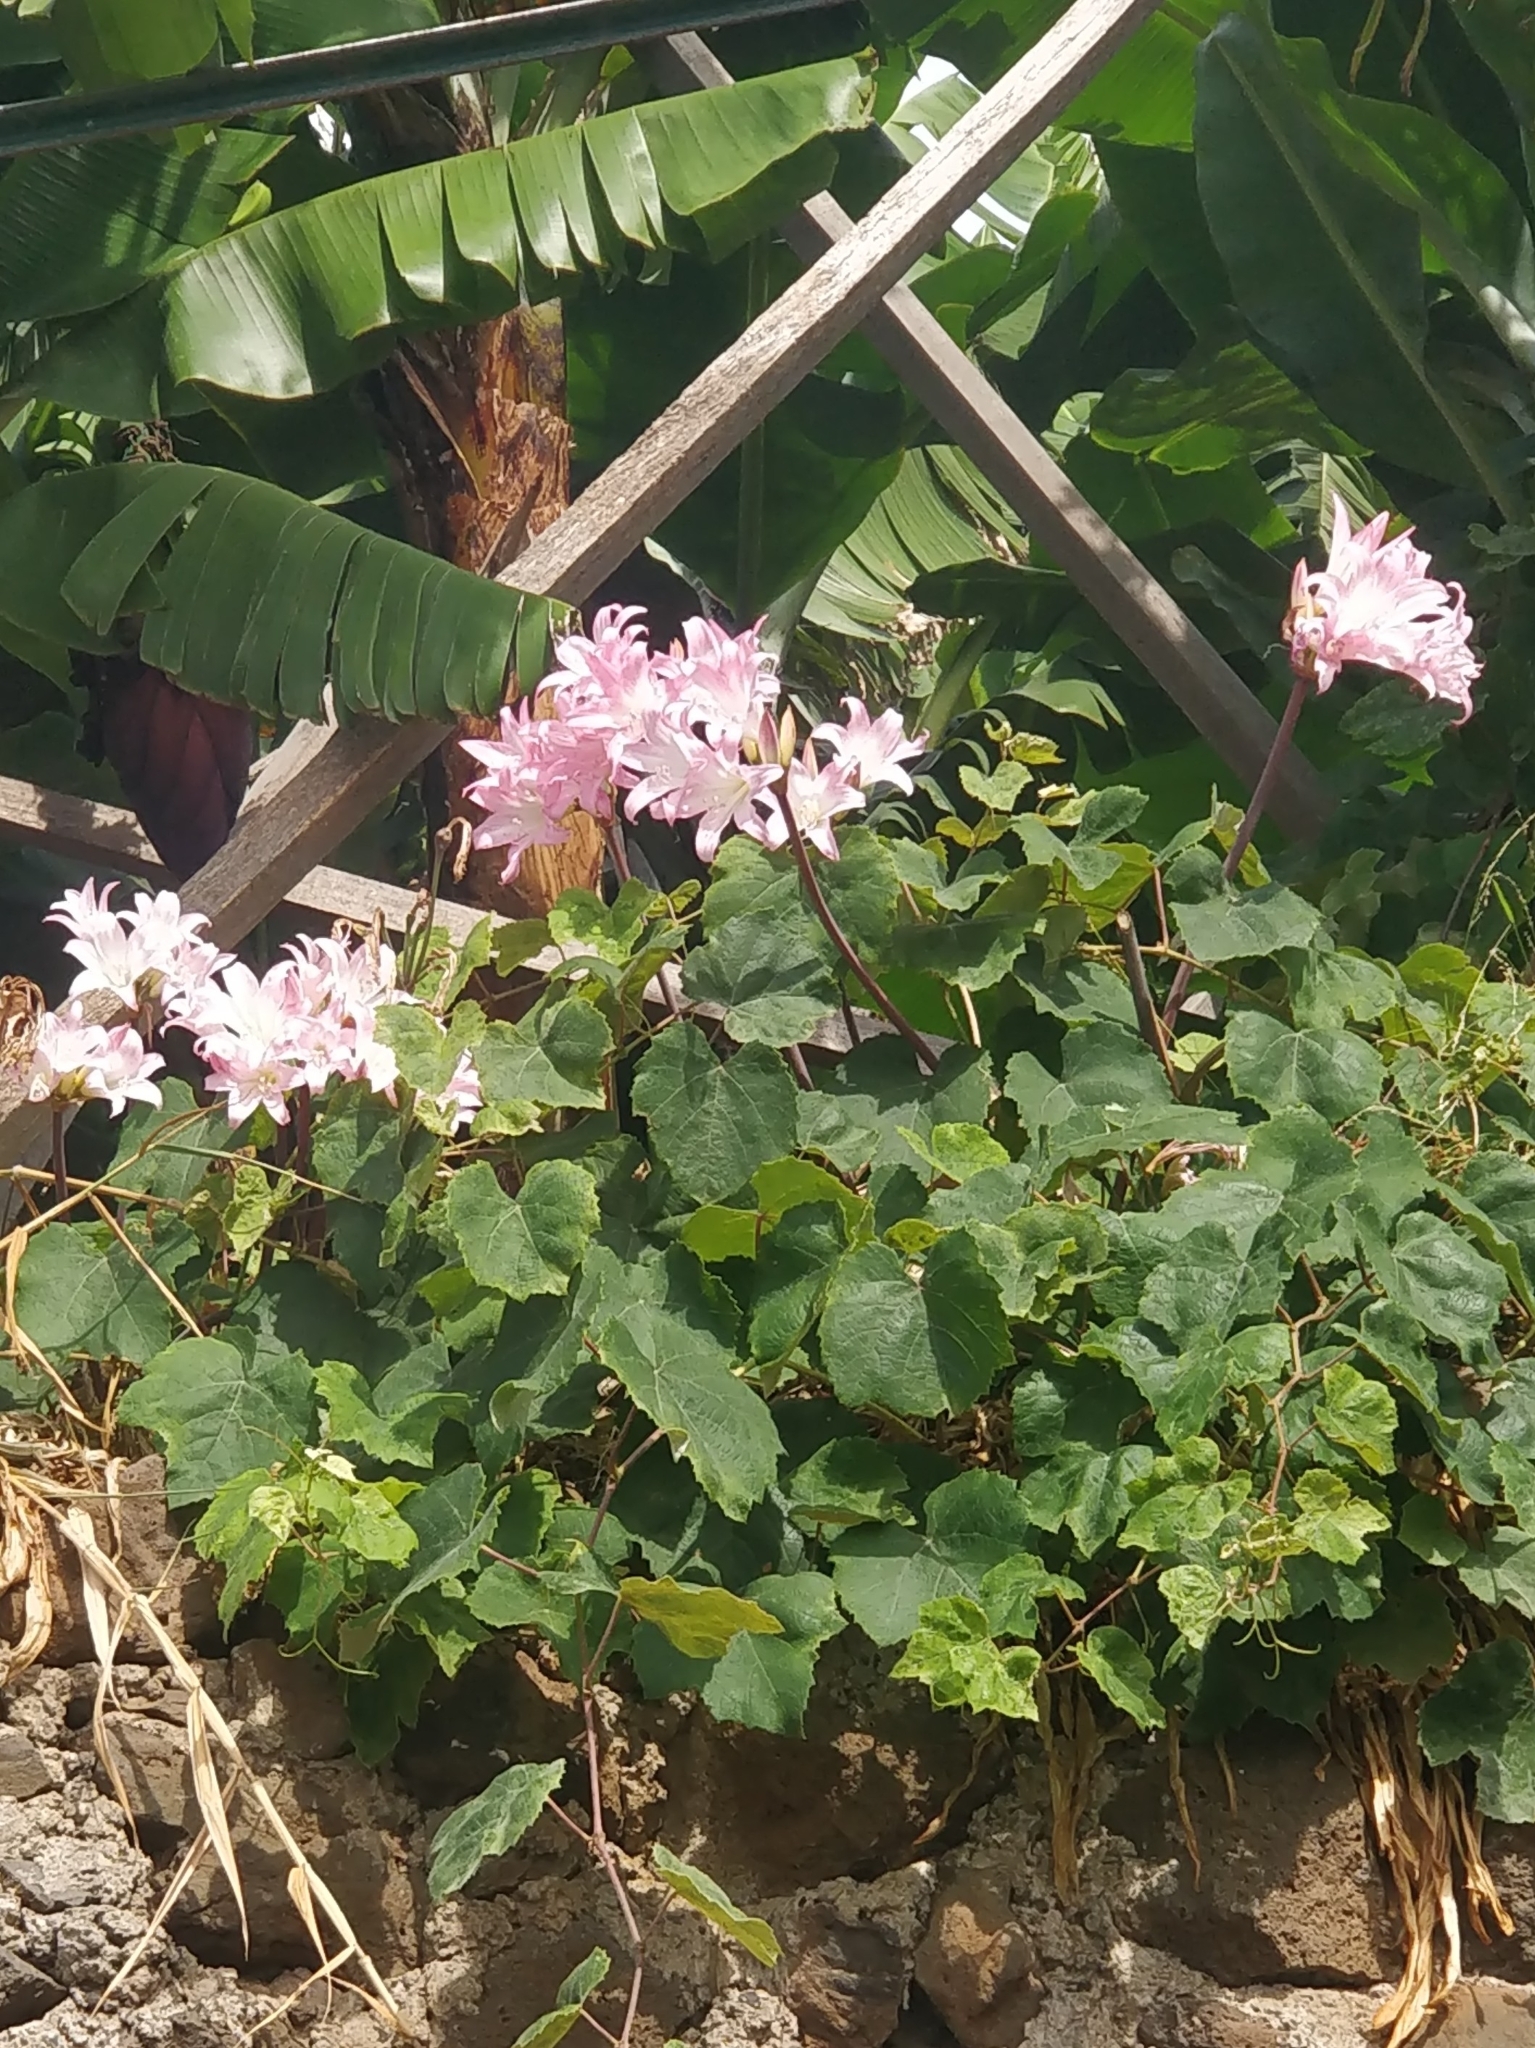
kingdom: Plantae
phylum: Tracheophyta
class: Liliopsida
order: Asparagales
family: Amaryllidaceae
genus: Amaryllis
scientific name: Amaryllis belladonna
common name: Jersey lily
